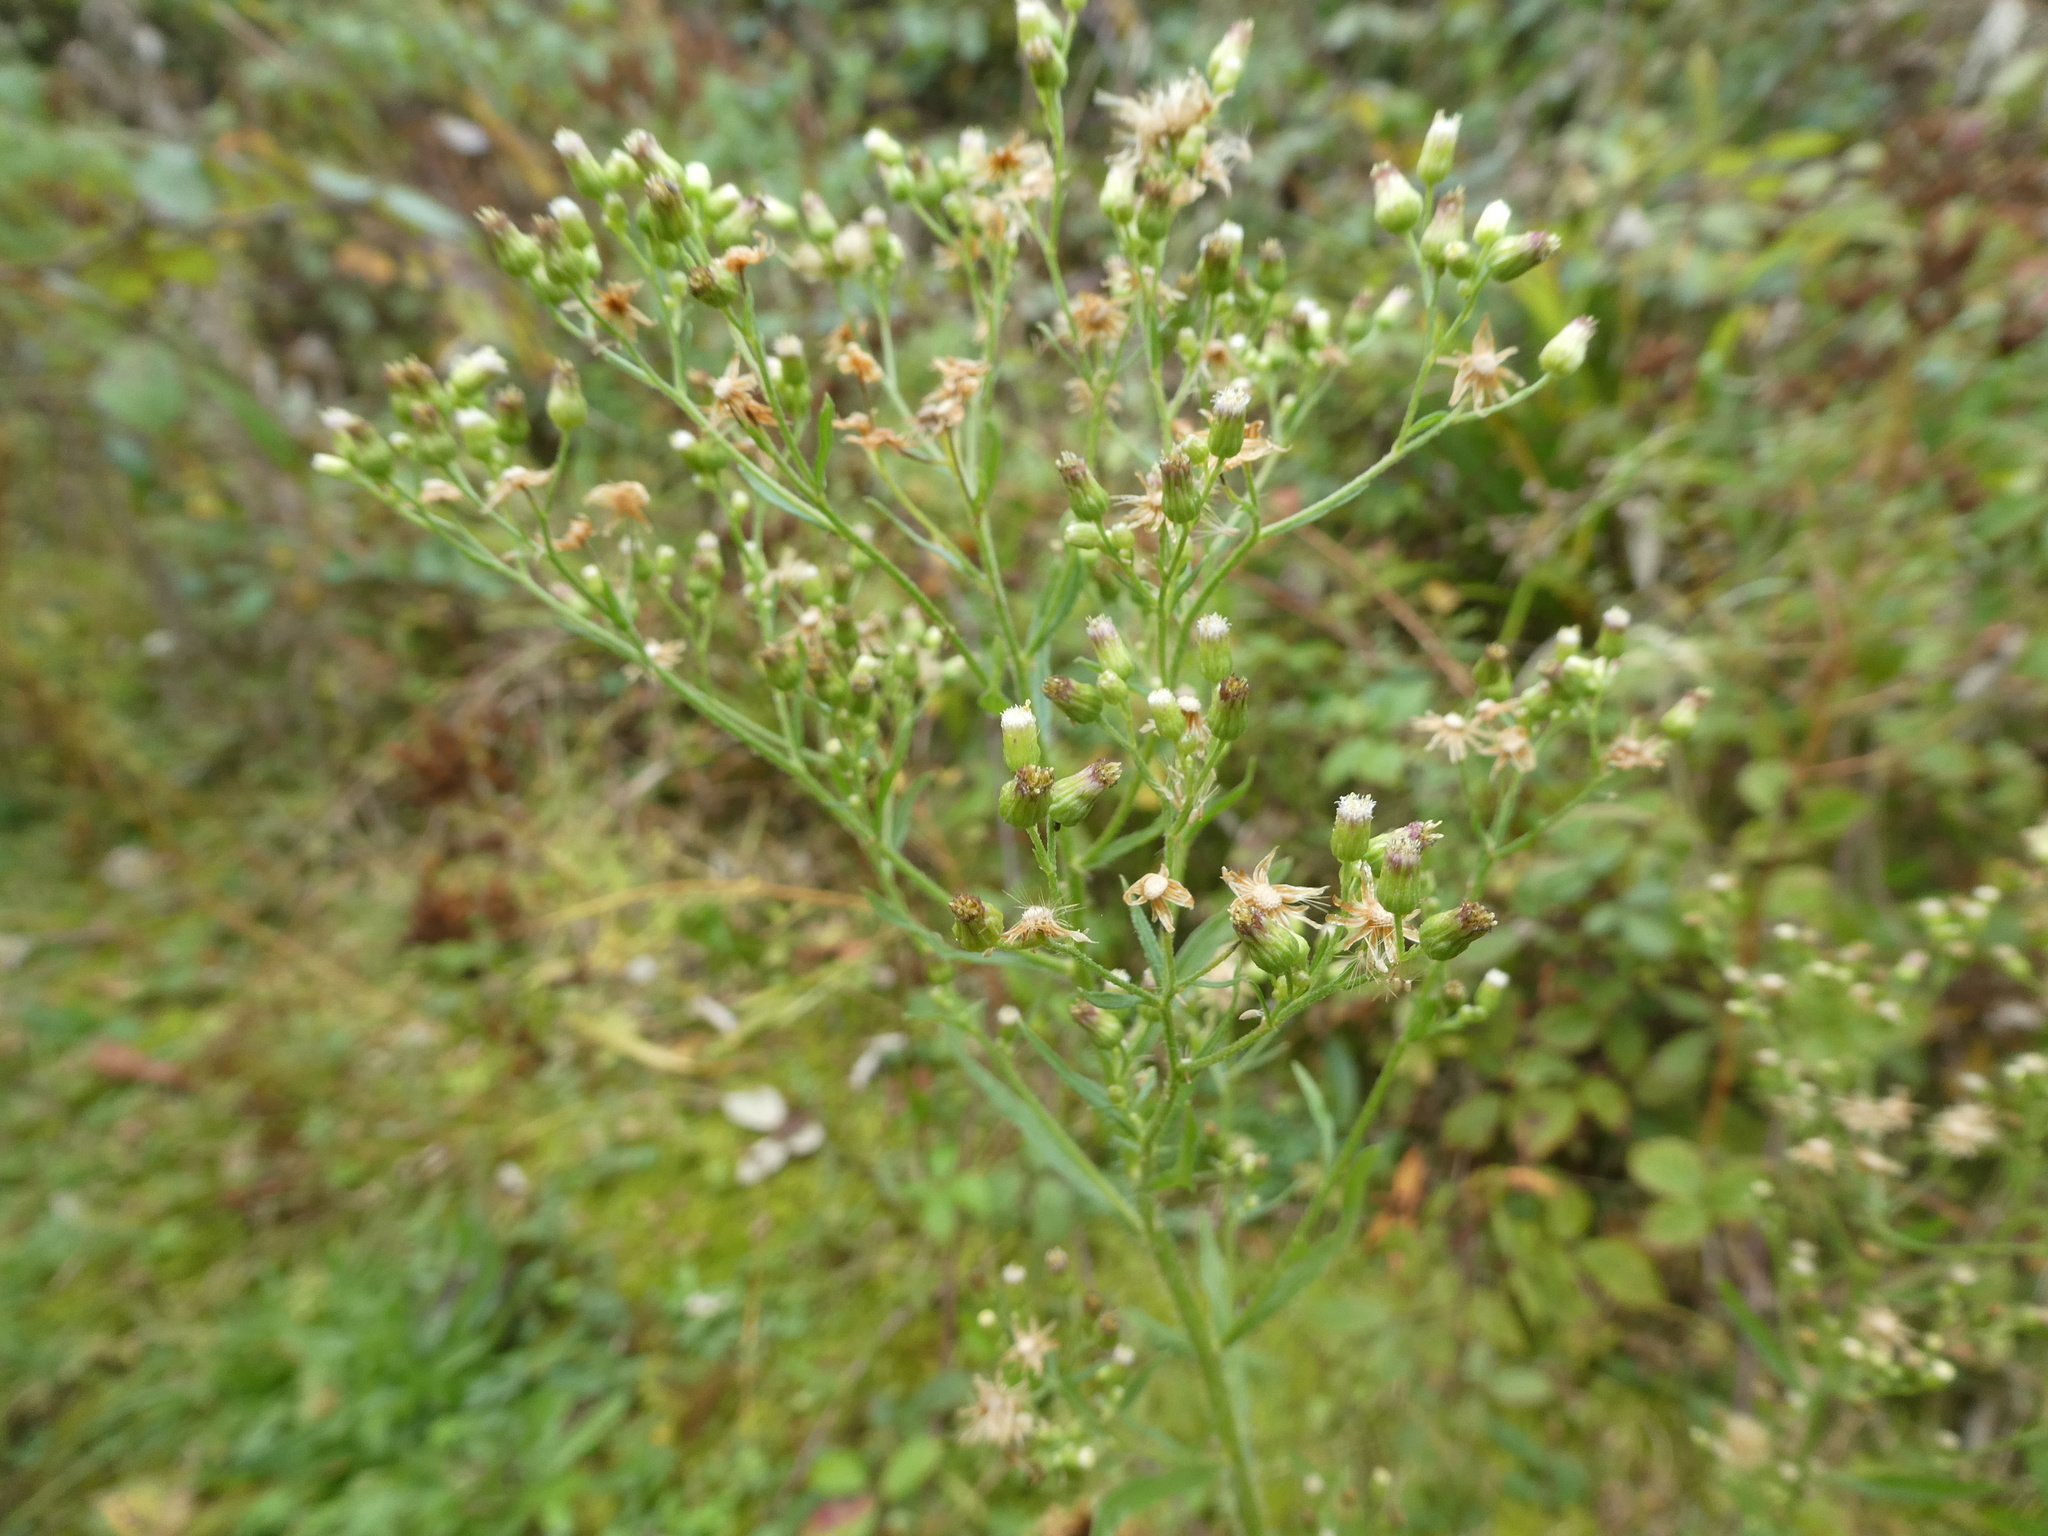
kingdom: Plantae
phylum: Tracheophyta
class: Magnoliopsida
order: Asterales
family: Asteraceae
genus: Erigeron
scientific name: Erigeron bonariensis
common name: Argentine fleabane
